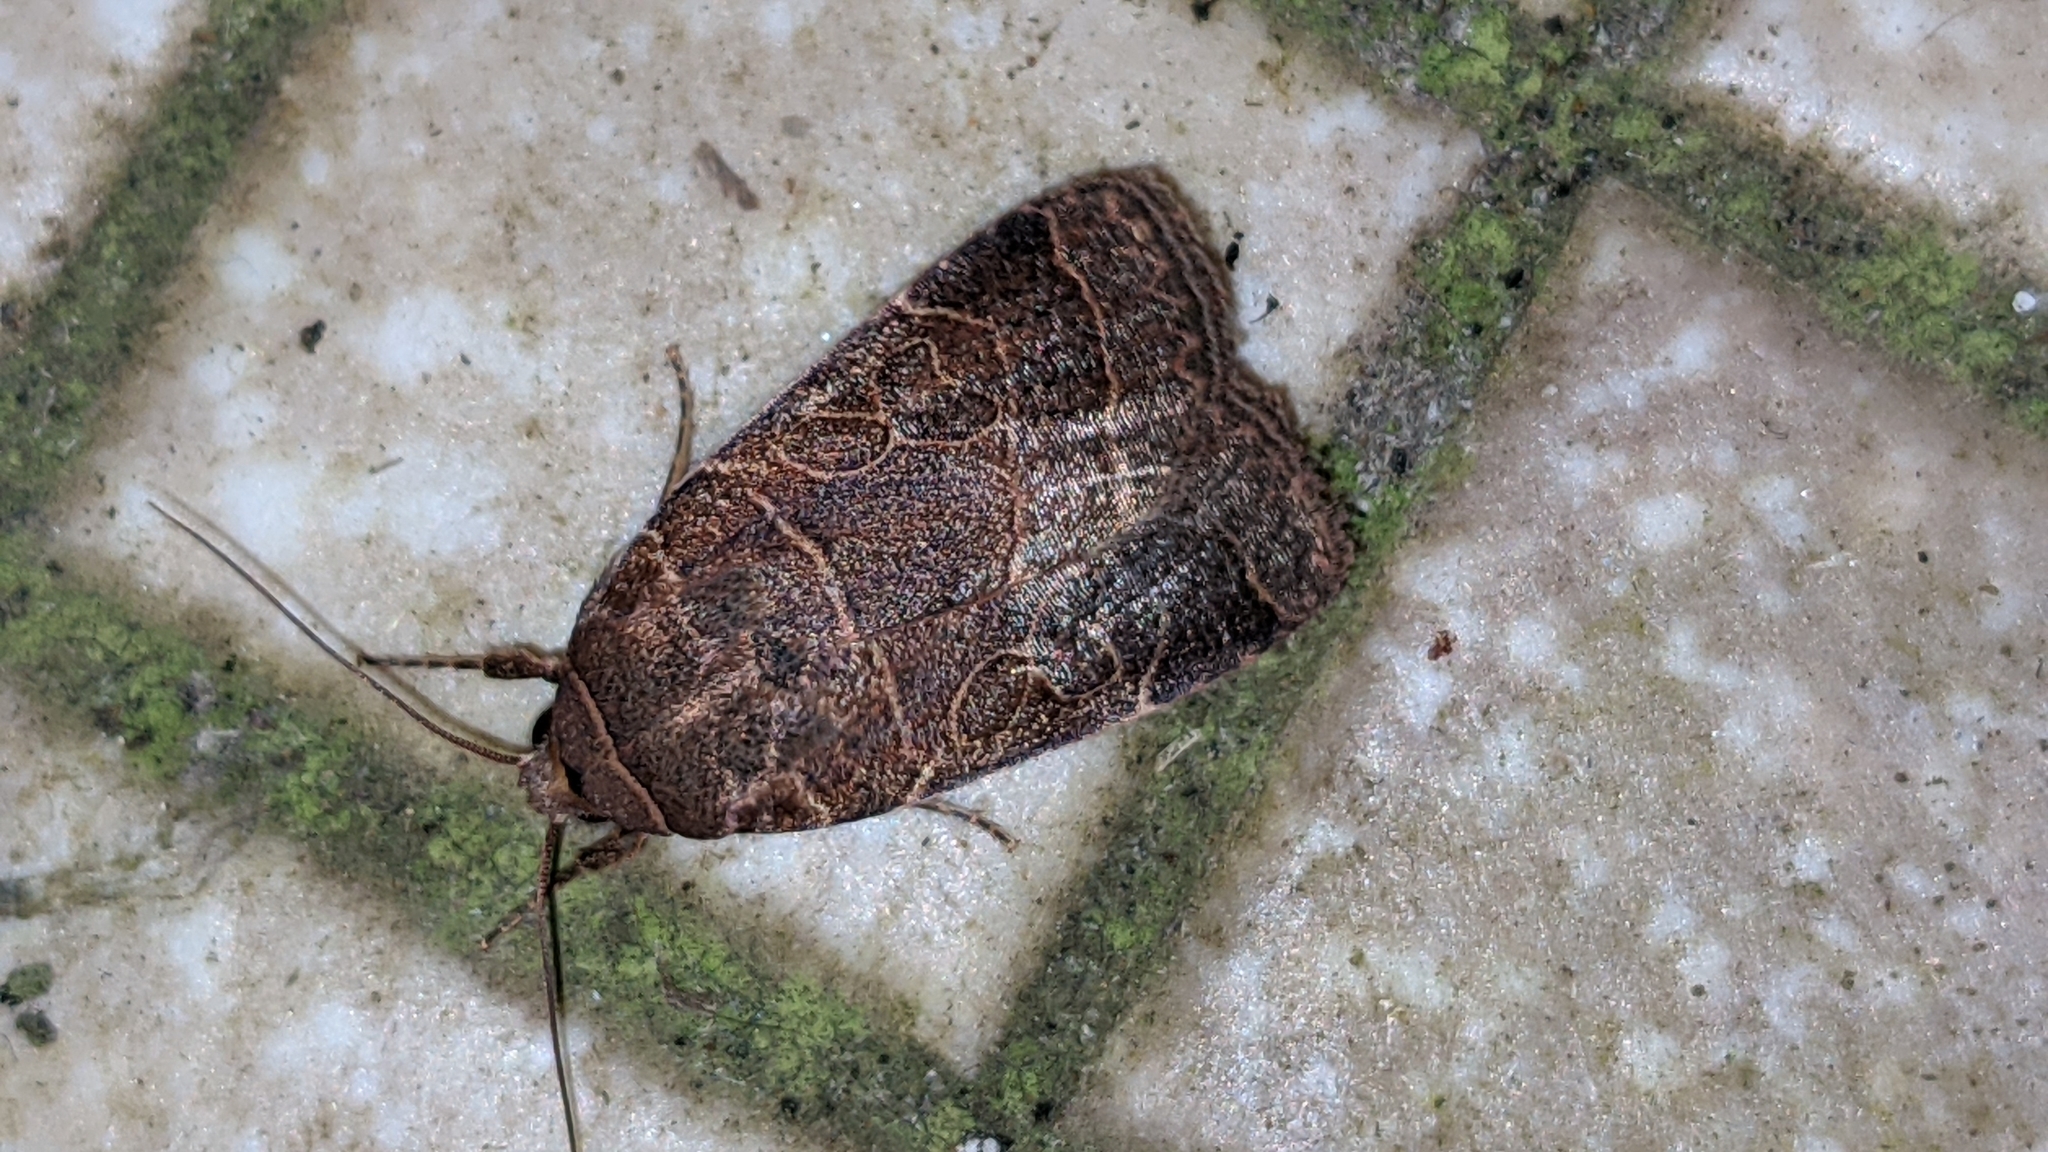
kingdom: Animalia
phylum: Arthropoda
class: Insecta
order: Lepidoptera
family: Noctuidae
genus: Orthodes
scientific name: Orthodes majuscula
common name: Rustic quaker
